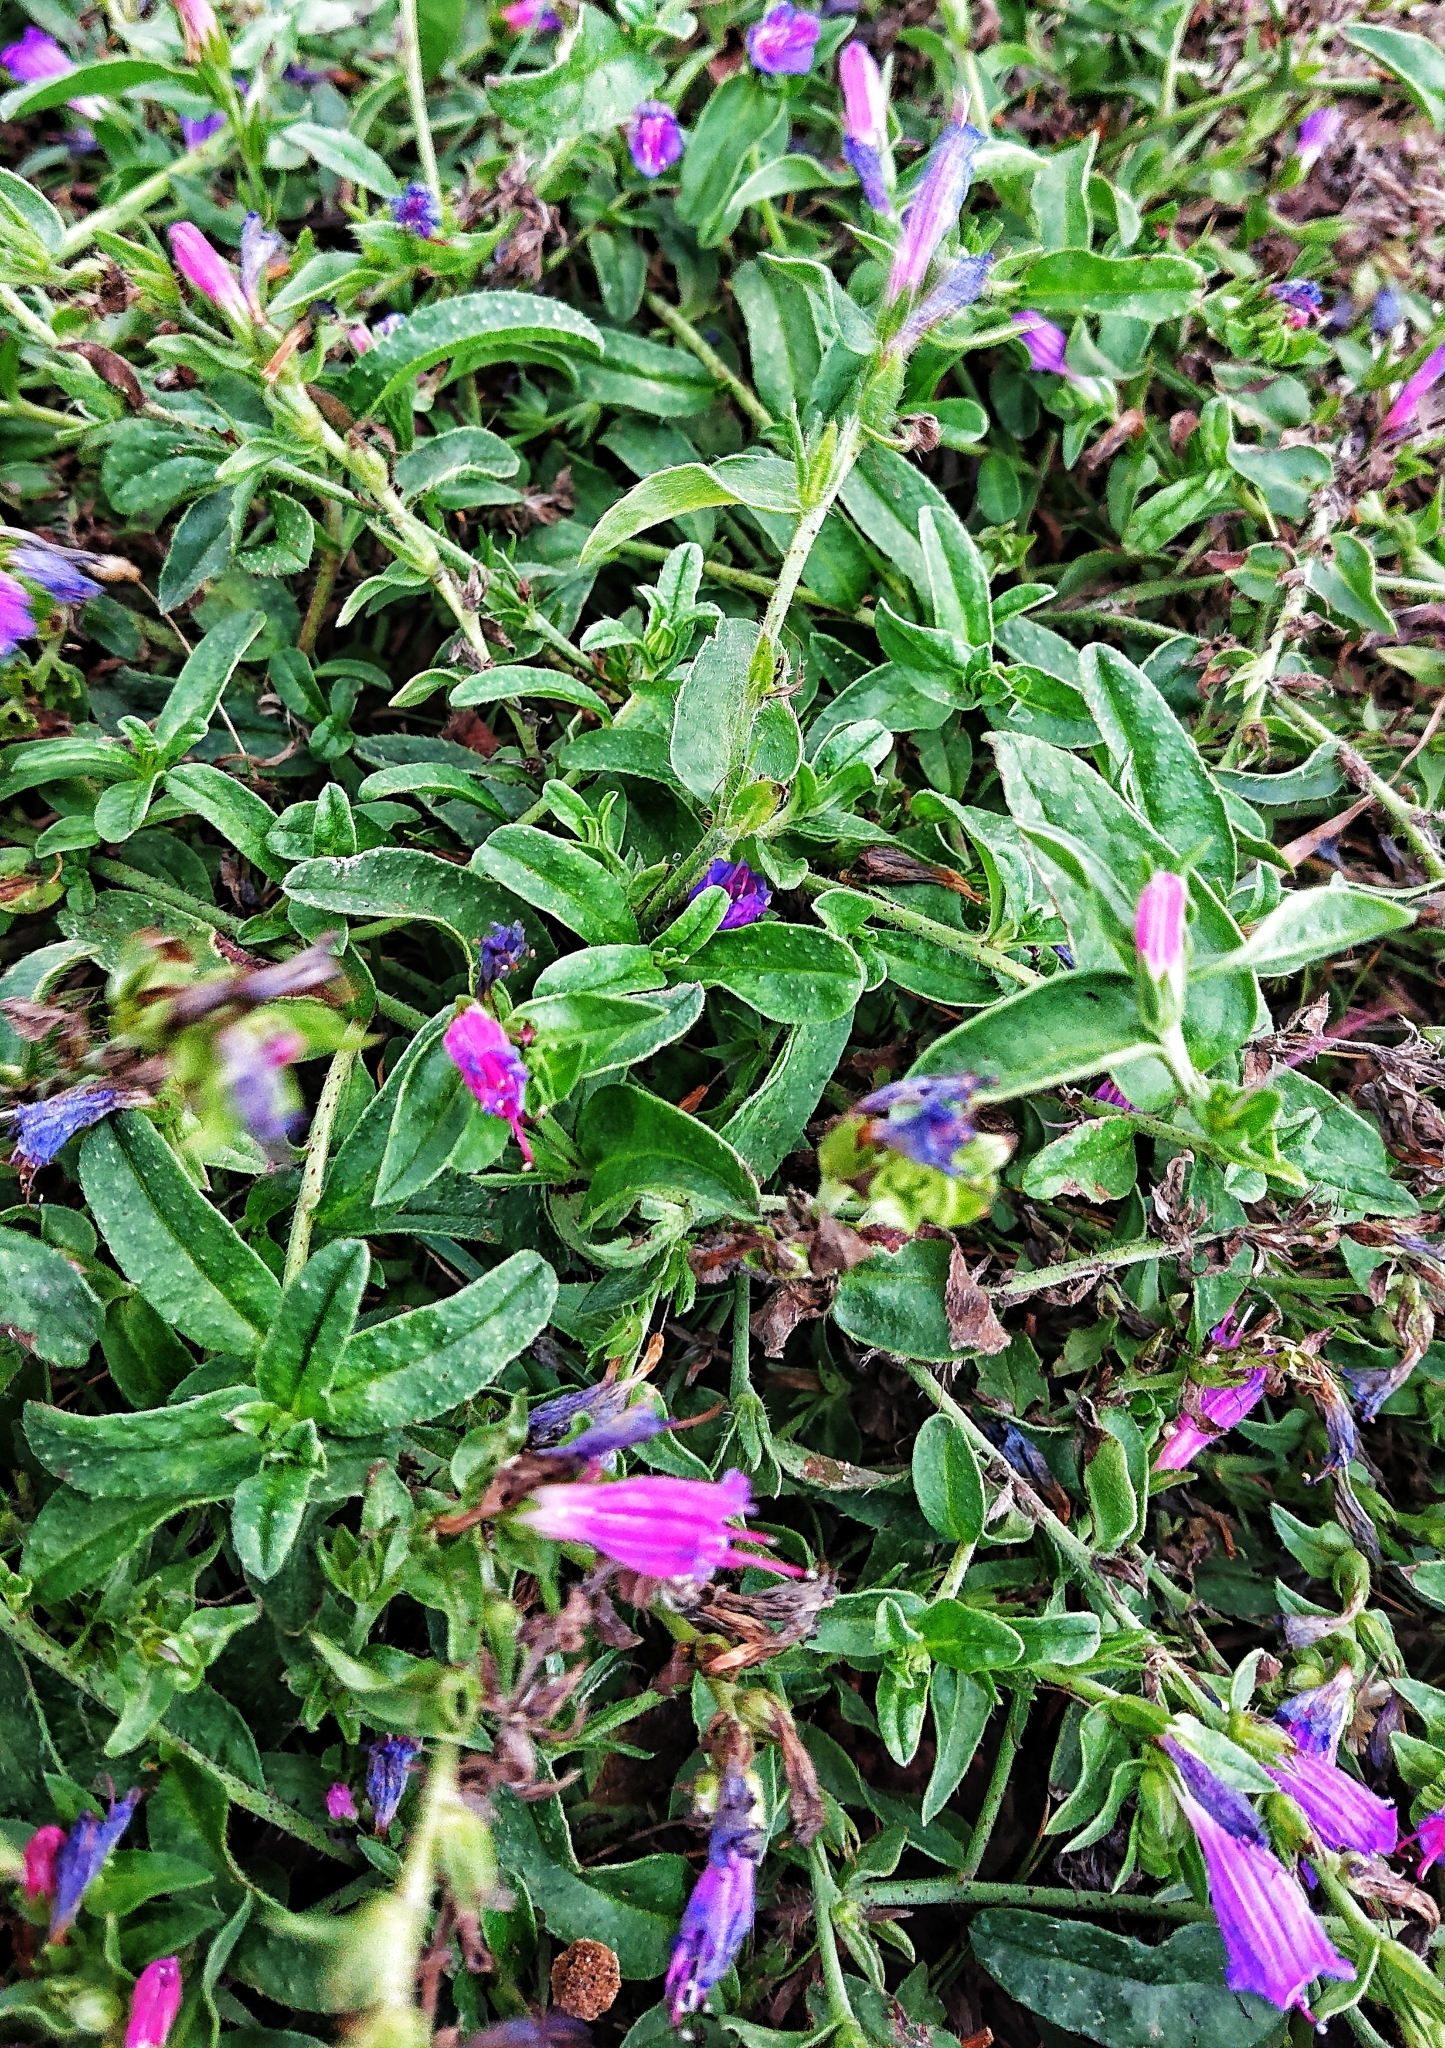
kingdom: Plantae
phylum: Tracheophyta
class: Magnoliopsida
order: Boraginales
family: Boraginaceae
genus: Echium
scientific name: Echium rosulatum
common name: Lax viper's-bugloss
